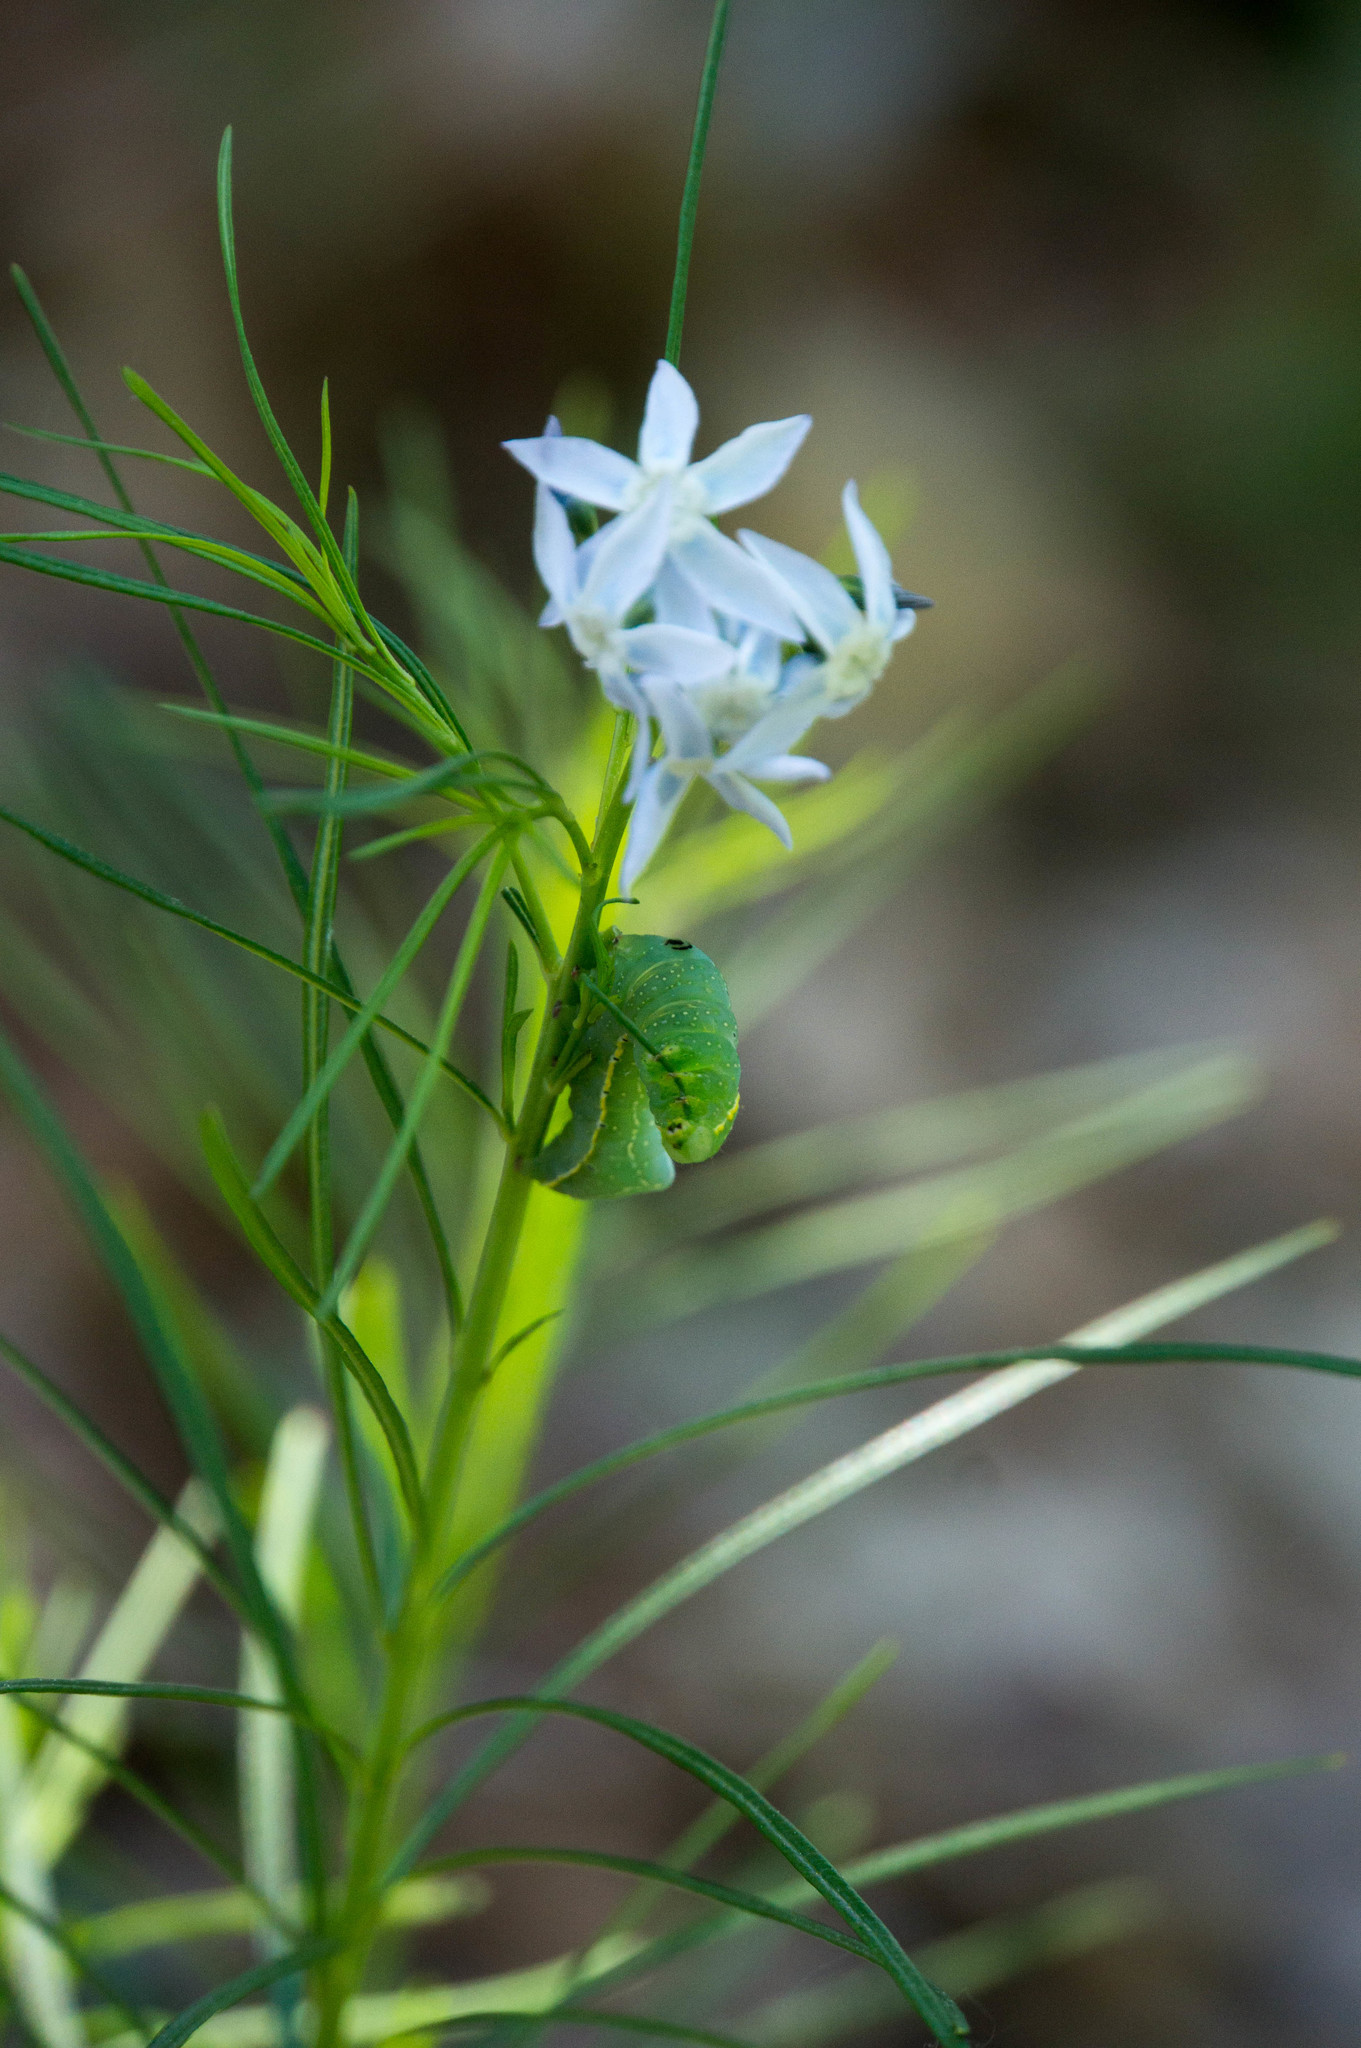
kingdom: Animalia
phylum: Arthropoda
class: Insecta
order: Lepidoptera
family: Noctuidae
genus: Amphipyra
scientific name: Amphipyra pyramidoides
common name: American copper underwing
